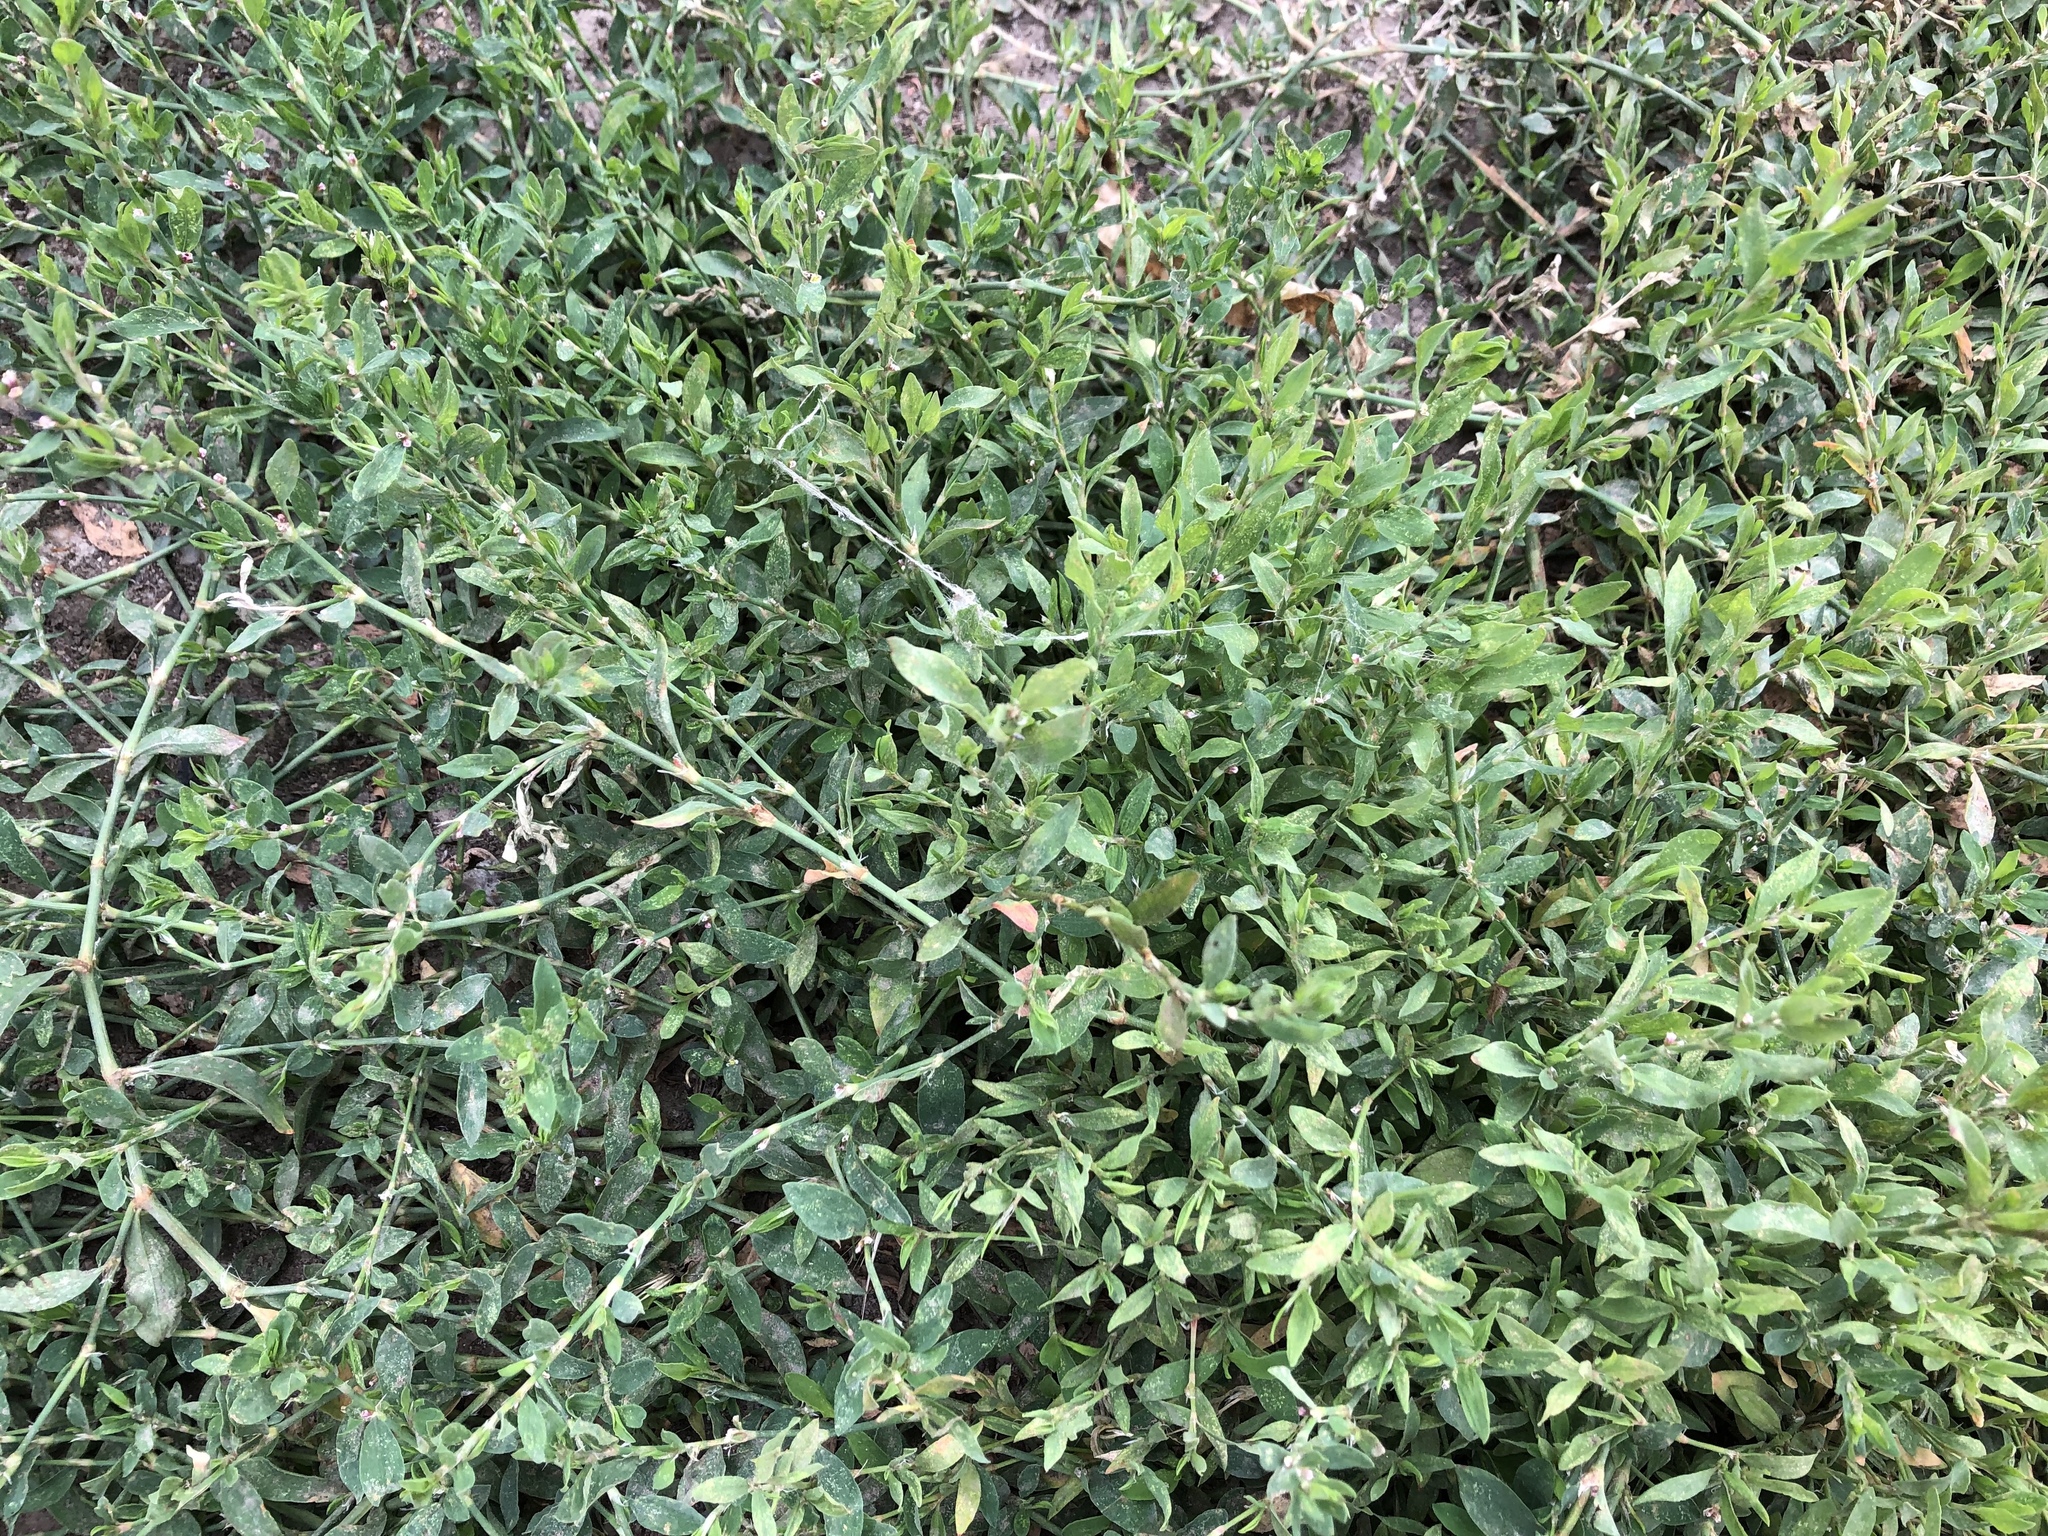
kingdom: Plantae
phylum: Tracheophyta
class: Magnoliopsida
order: Caryophyllales
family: Polygonaceae
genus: Polygonum
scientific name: Polygonum aviculare
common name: Prostrate knotweed
